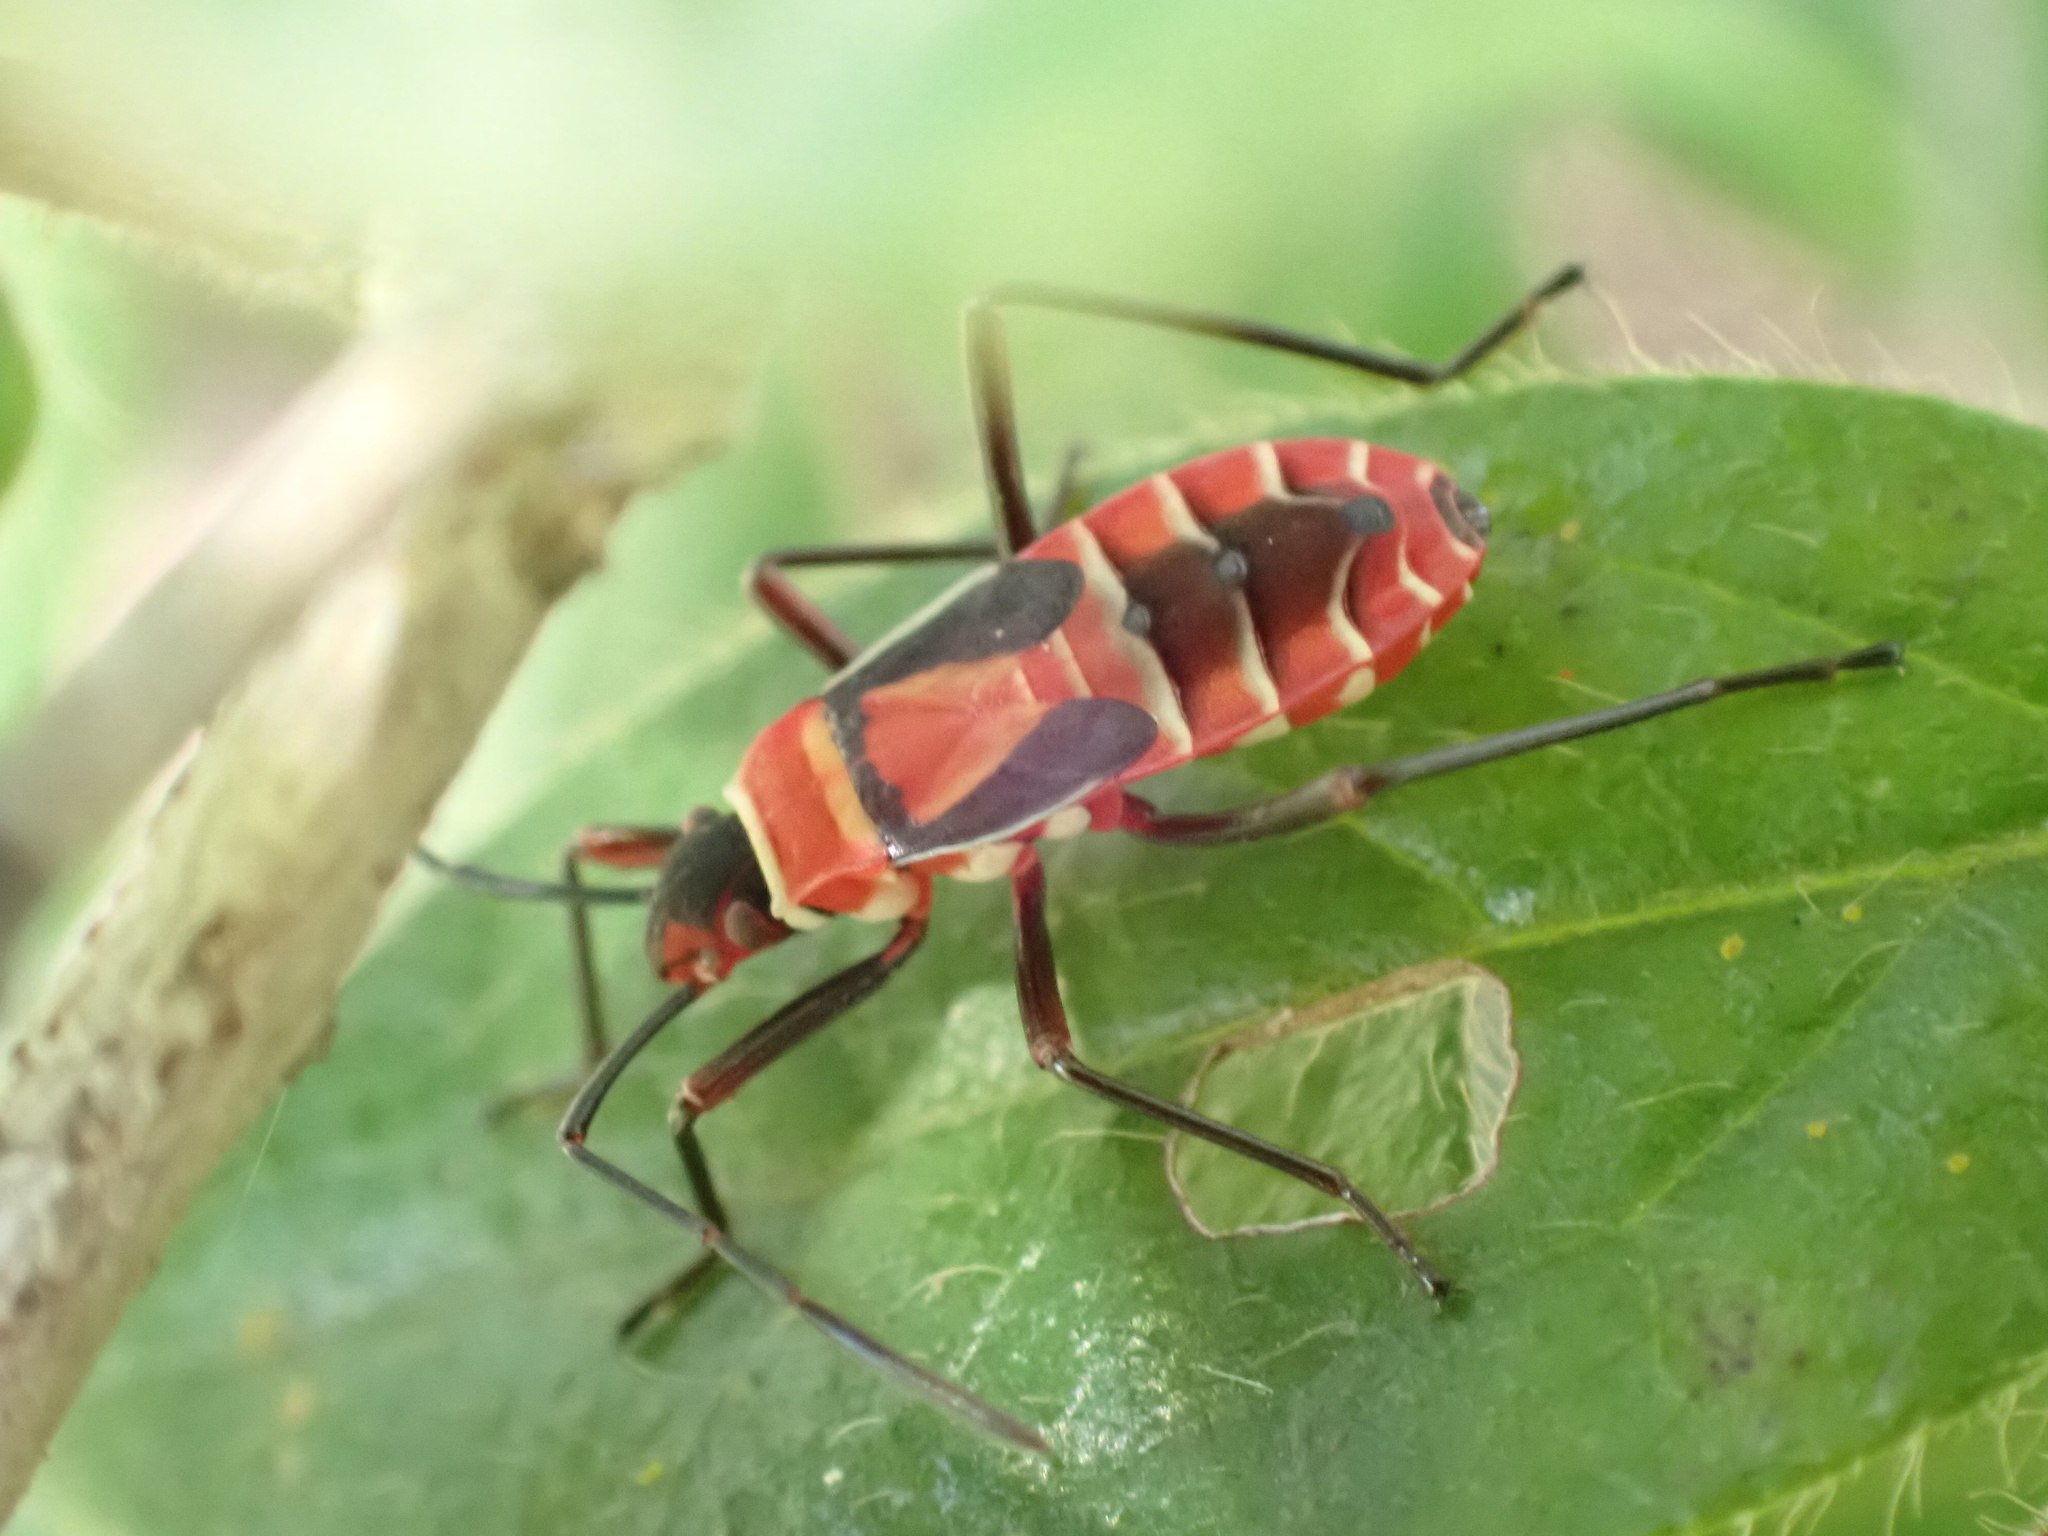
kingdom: Animalia
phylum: Arthropoda
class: Insecta
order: Hemiptera
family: Pyrrhocoridae
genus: Dysdercus
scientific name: Dysdercus
